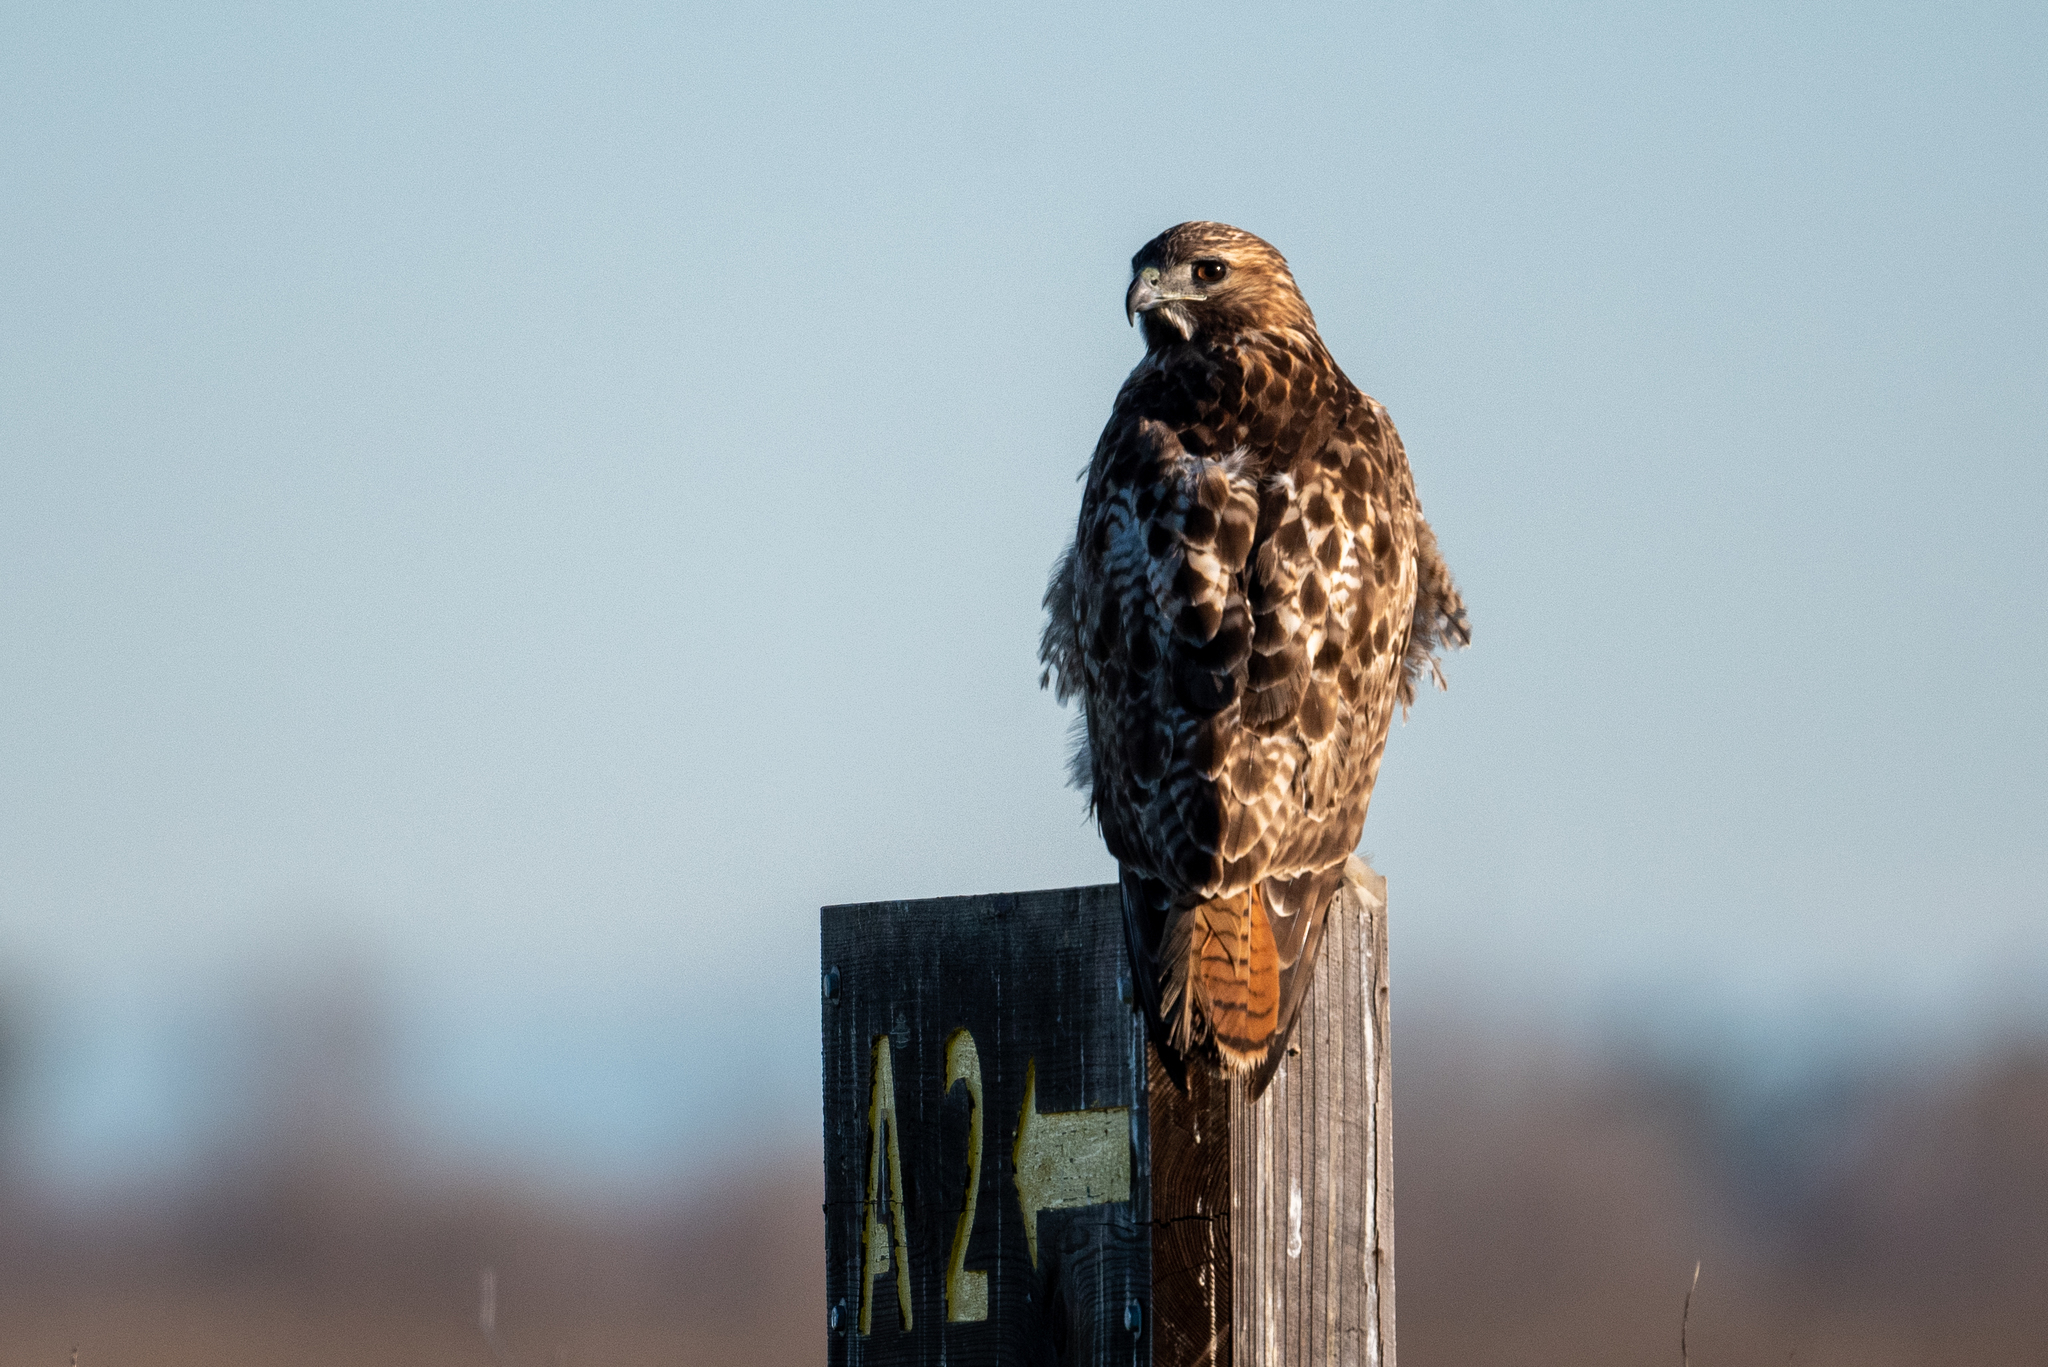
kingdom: Animalia
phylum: Chordata
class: Aves
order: Accipitriformes
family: Accipitridae
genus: Buteo
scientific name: Buteo jamaicensis
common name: Red-tailed hawk
